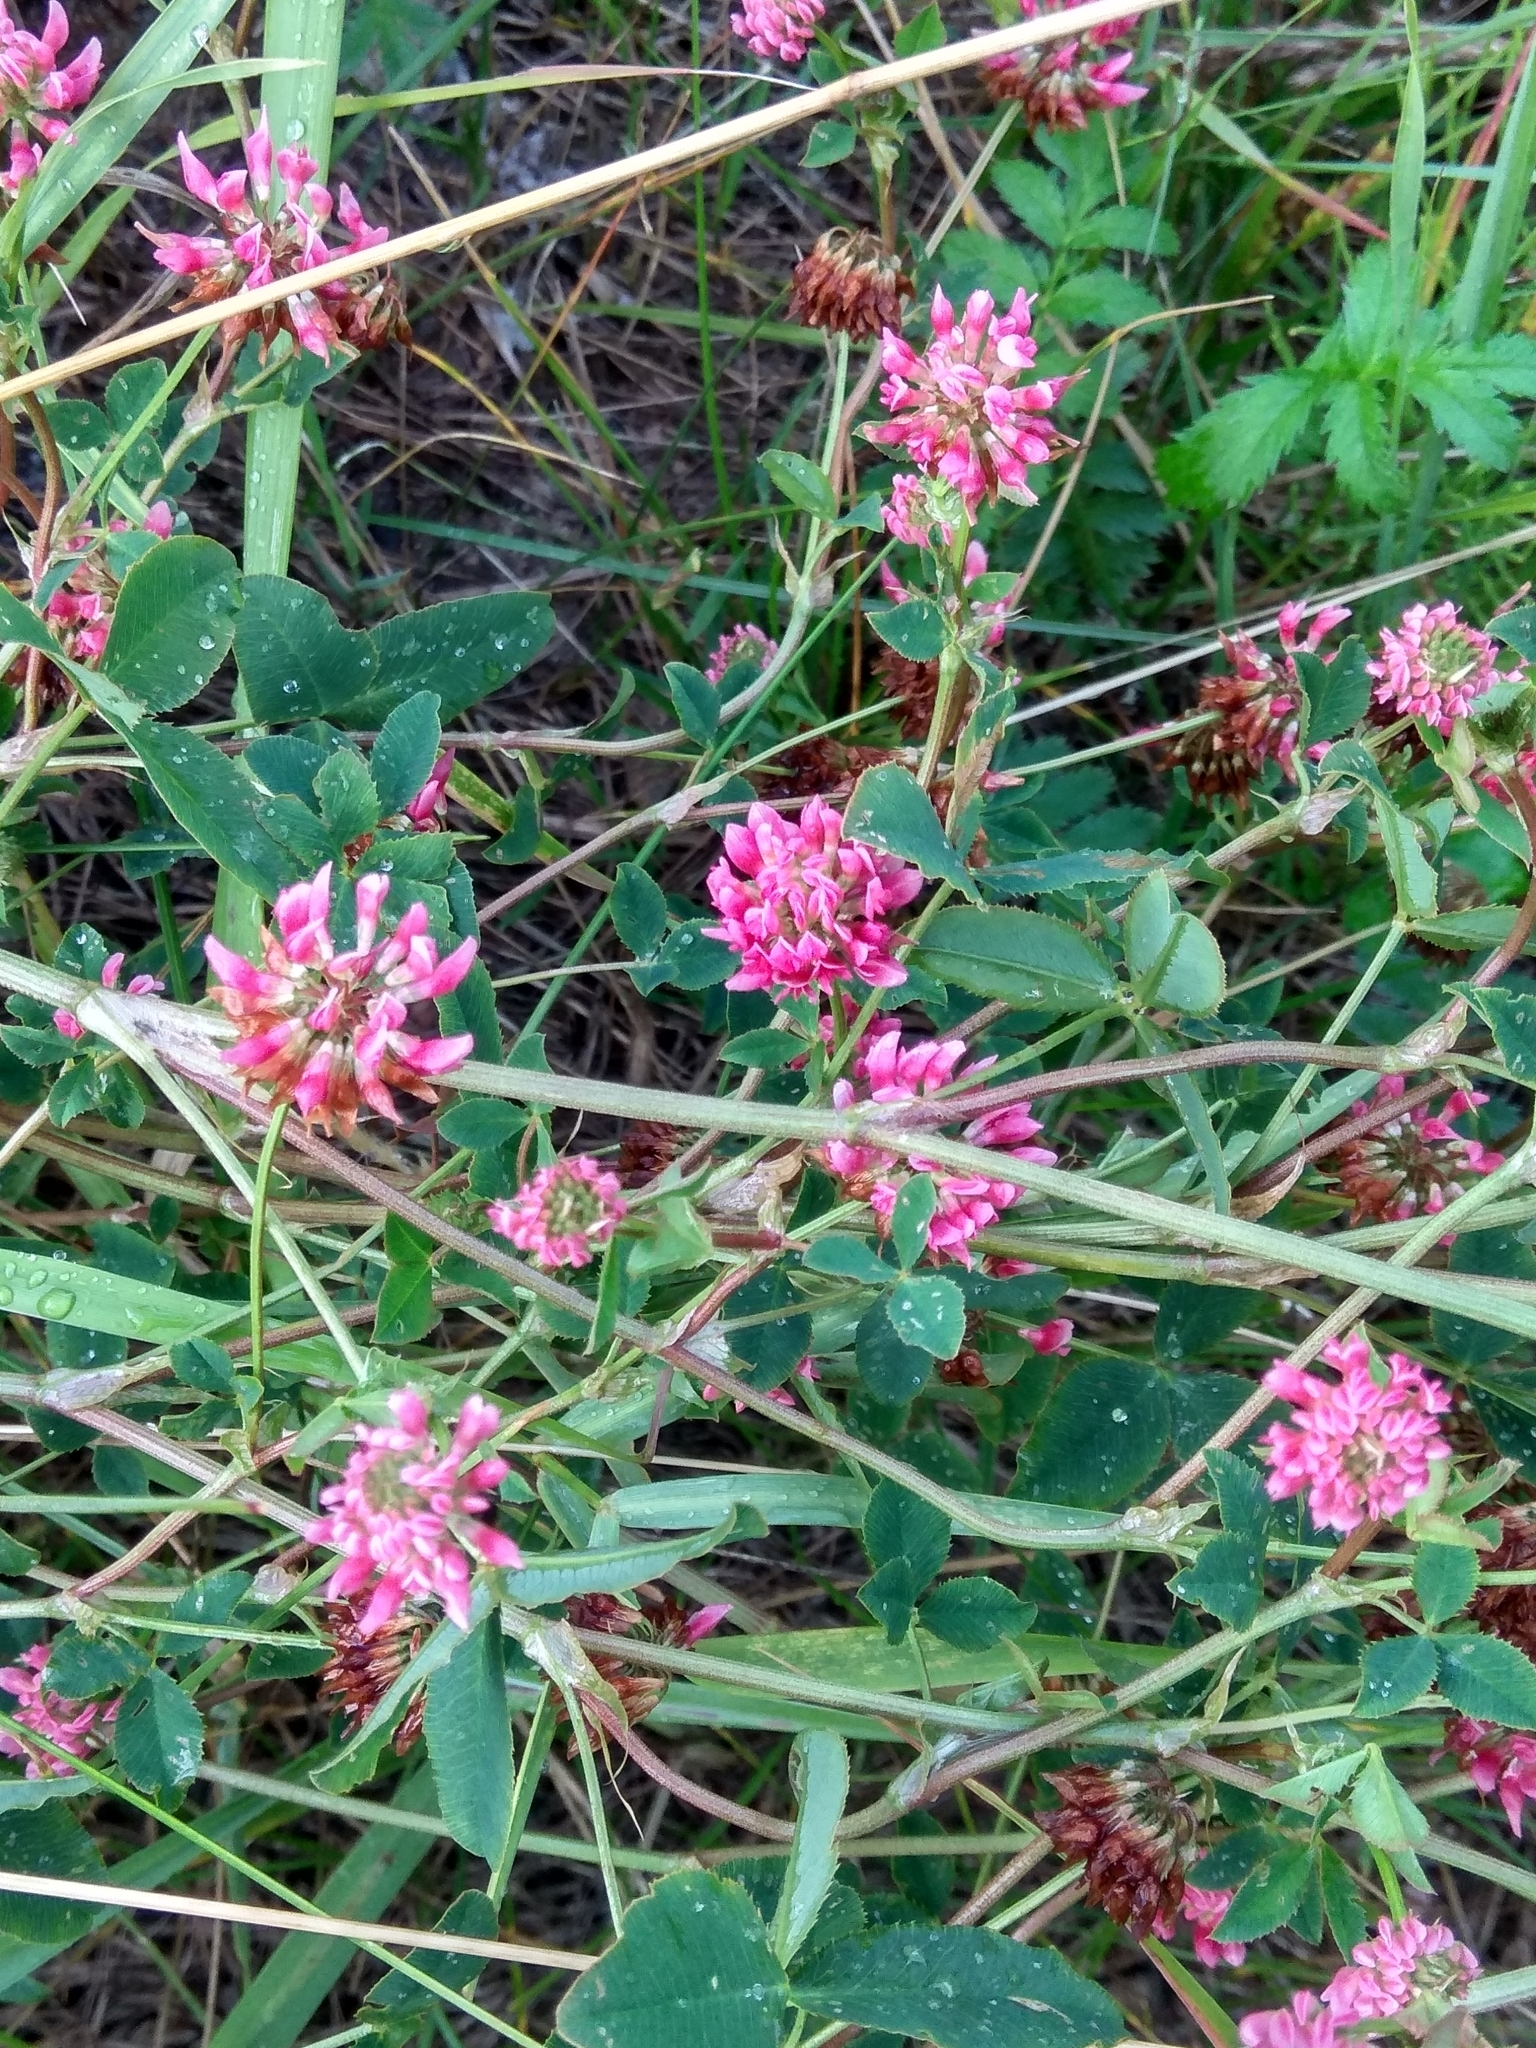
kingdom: Plantae
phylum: Tracheophyta
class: Magnoliopsida
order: Fabales
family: Fabaceae
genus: Trifolium
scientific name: Trifolium hybridum
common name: Alsike clover
